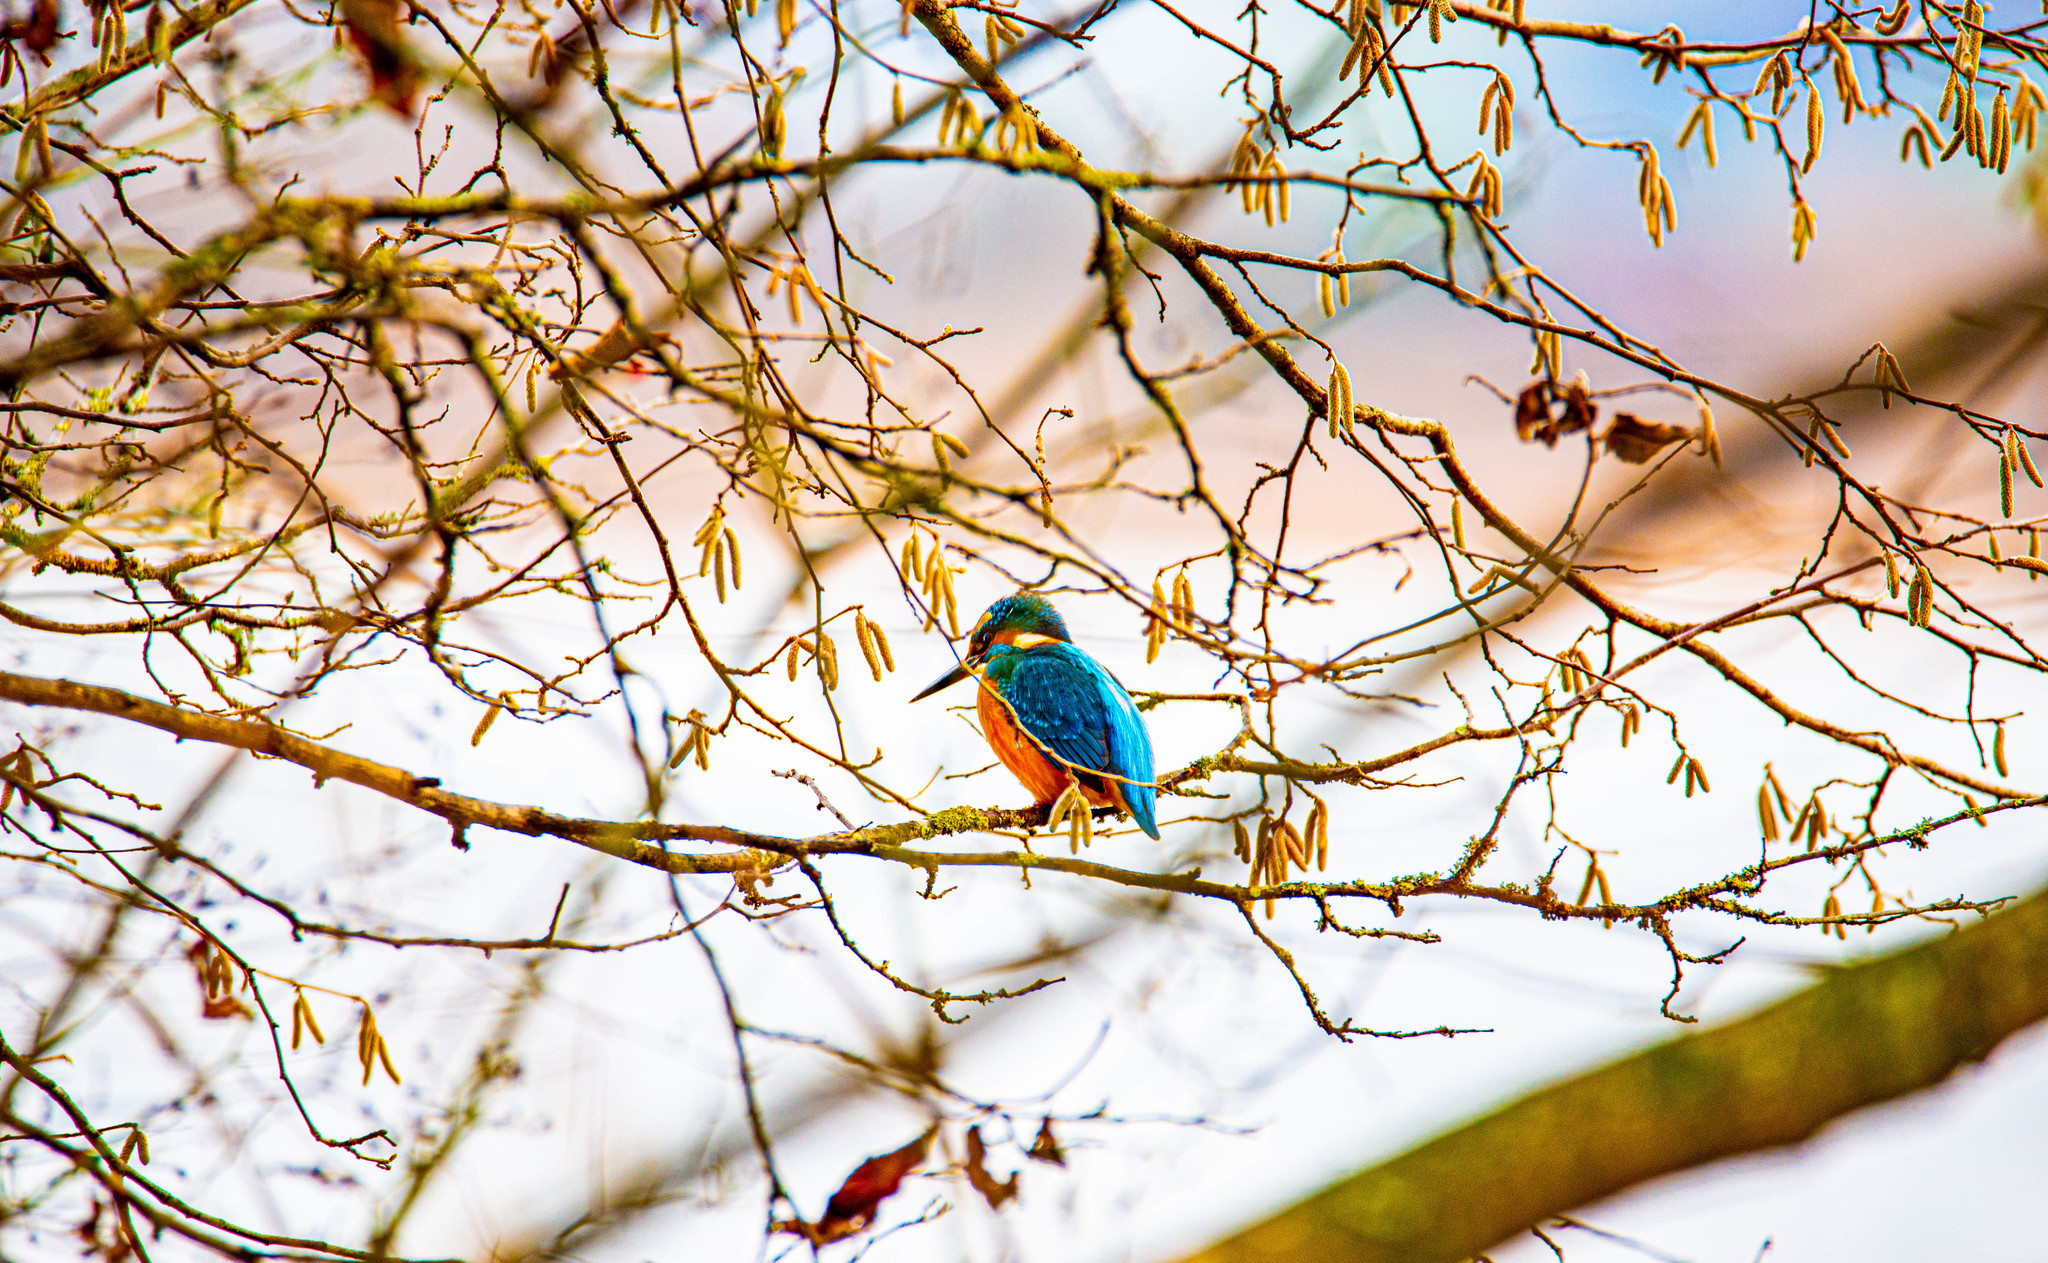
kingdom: Animalia
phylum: Chordata
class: Aves
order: Coraciiformes
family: Alcedinidae
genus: Alcedo
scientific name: Alcedo atthis
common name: Common kingfisher
